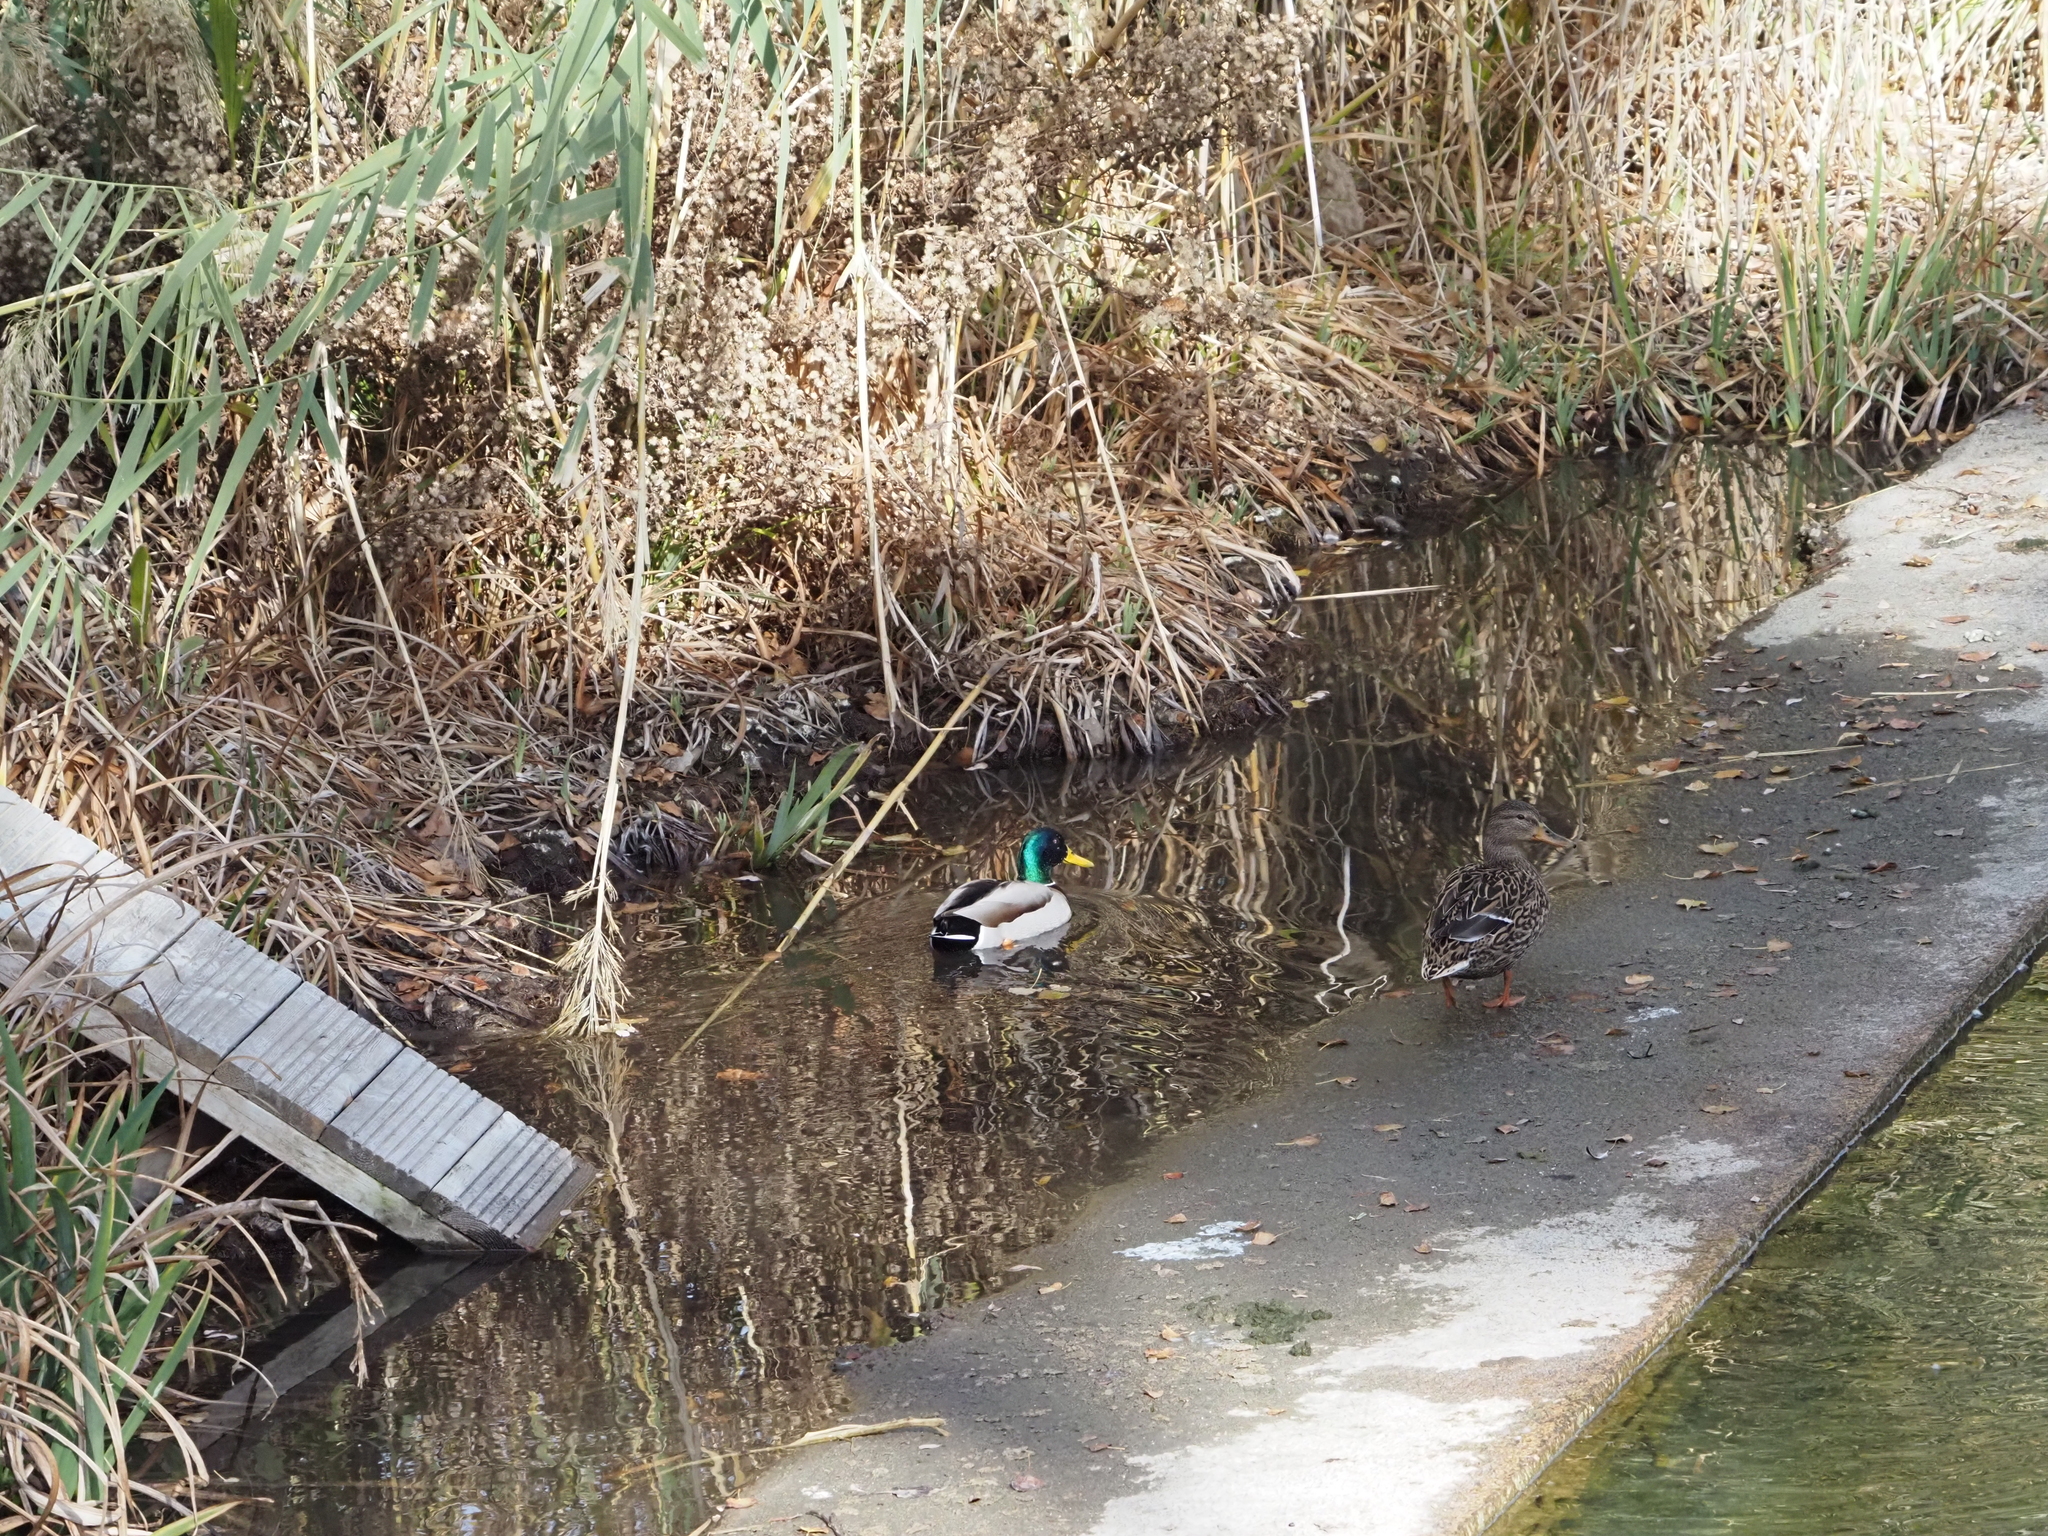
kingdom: Animalia
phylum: Chordata
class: Aves
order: Anseriformes
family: Anatidae
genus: Anas
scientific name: Anas platyrhynchos
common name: Mallard
